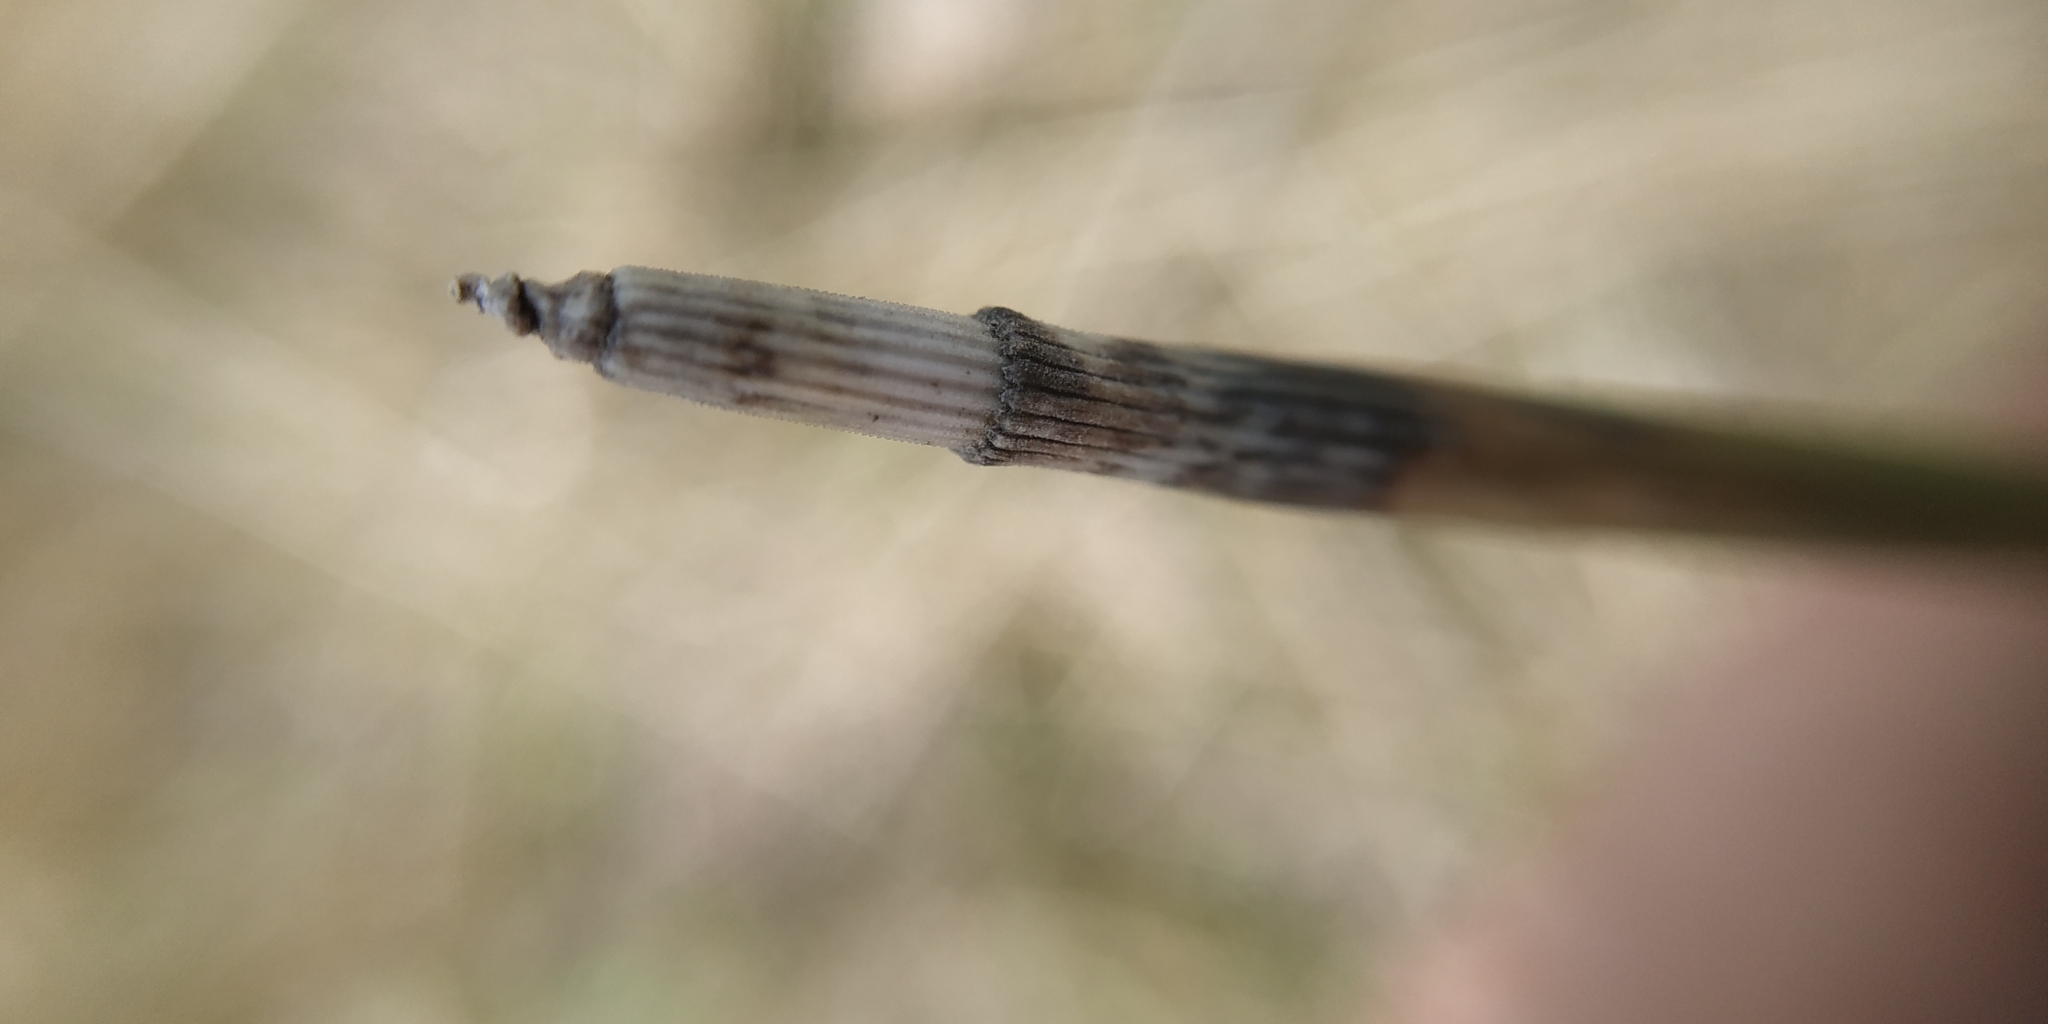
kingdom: Plantae
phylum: Tracheophyta
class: Polypodiopsida
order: Equisetales
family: Equisetaceae
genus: Equisetum
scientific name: Equisetum hyemale
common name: Rough horsetail
